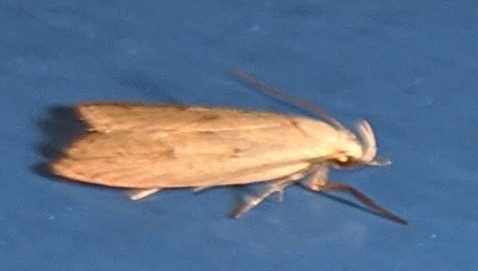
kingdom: Animalia
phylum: Arthropoda
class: Insecta
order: Lepidoptera
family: Peleopodidae
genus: Machimia
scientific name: Machimia tentoriferella
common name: Gold-striped leaftier moth
